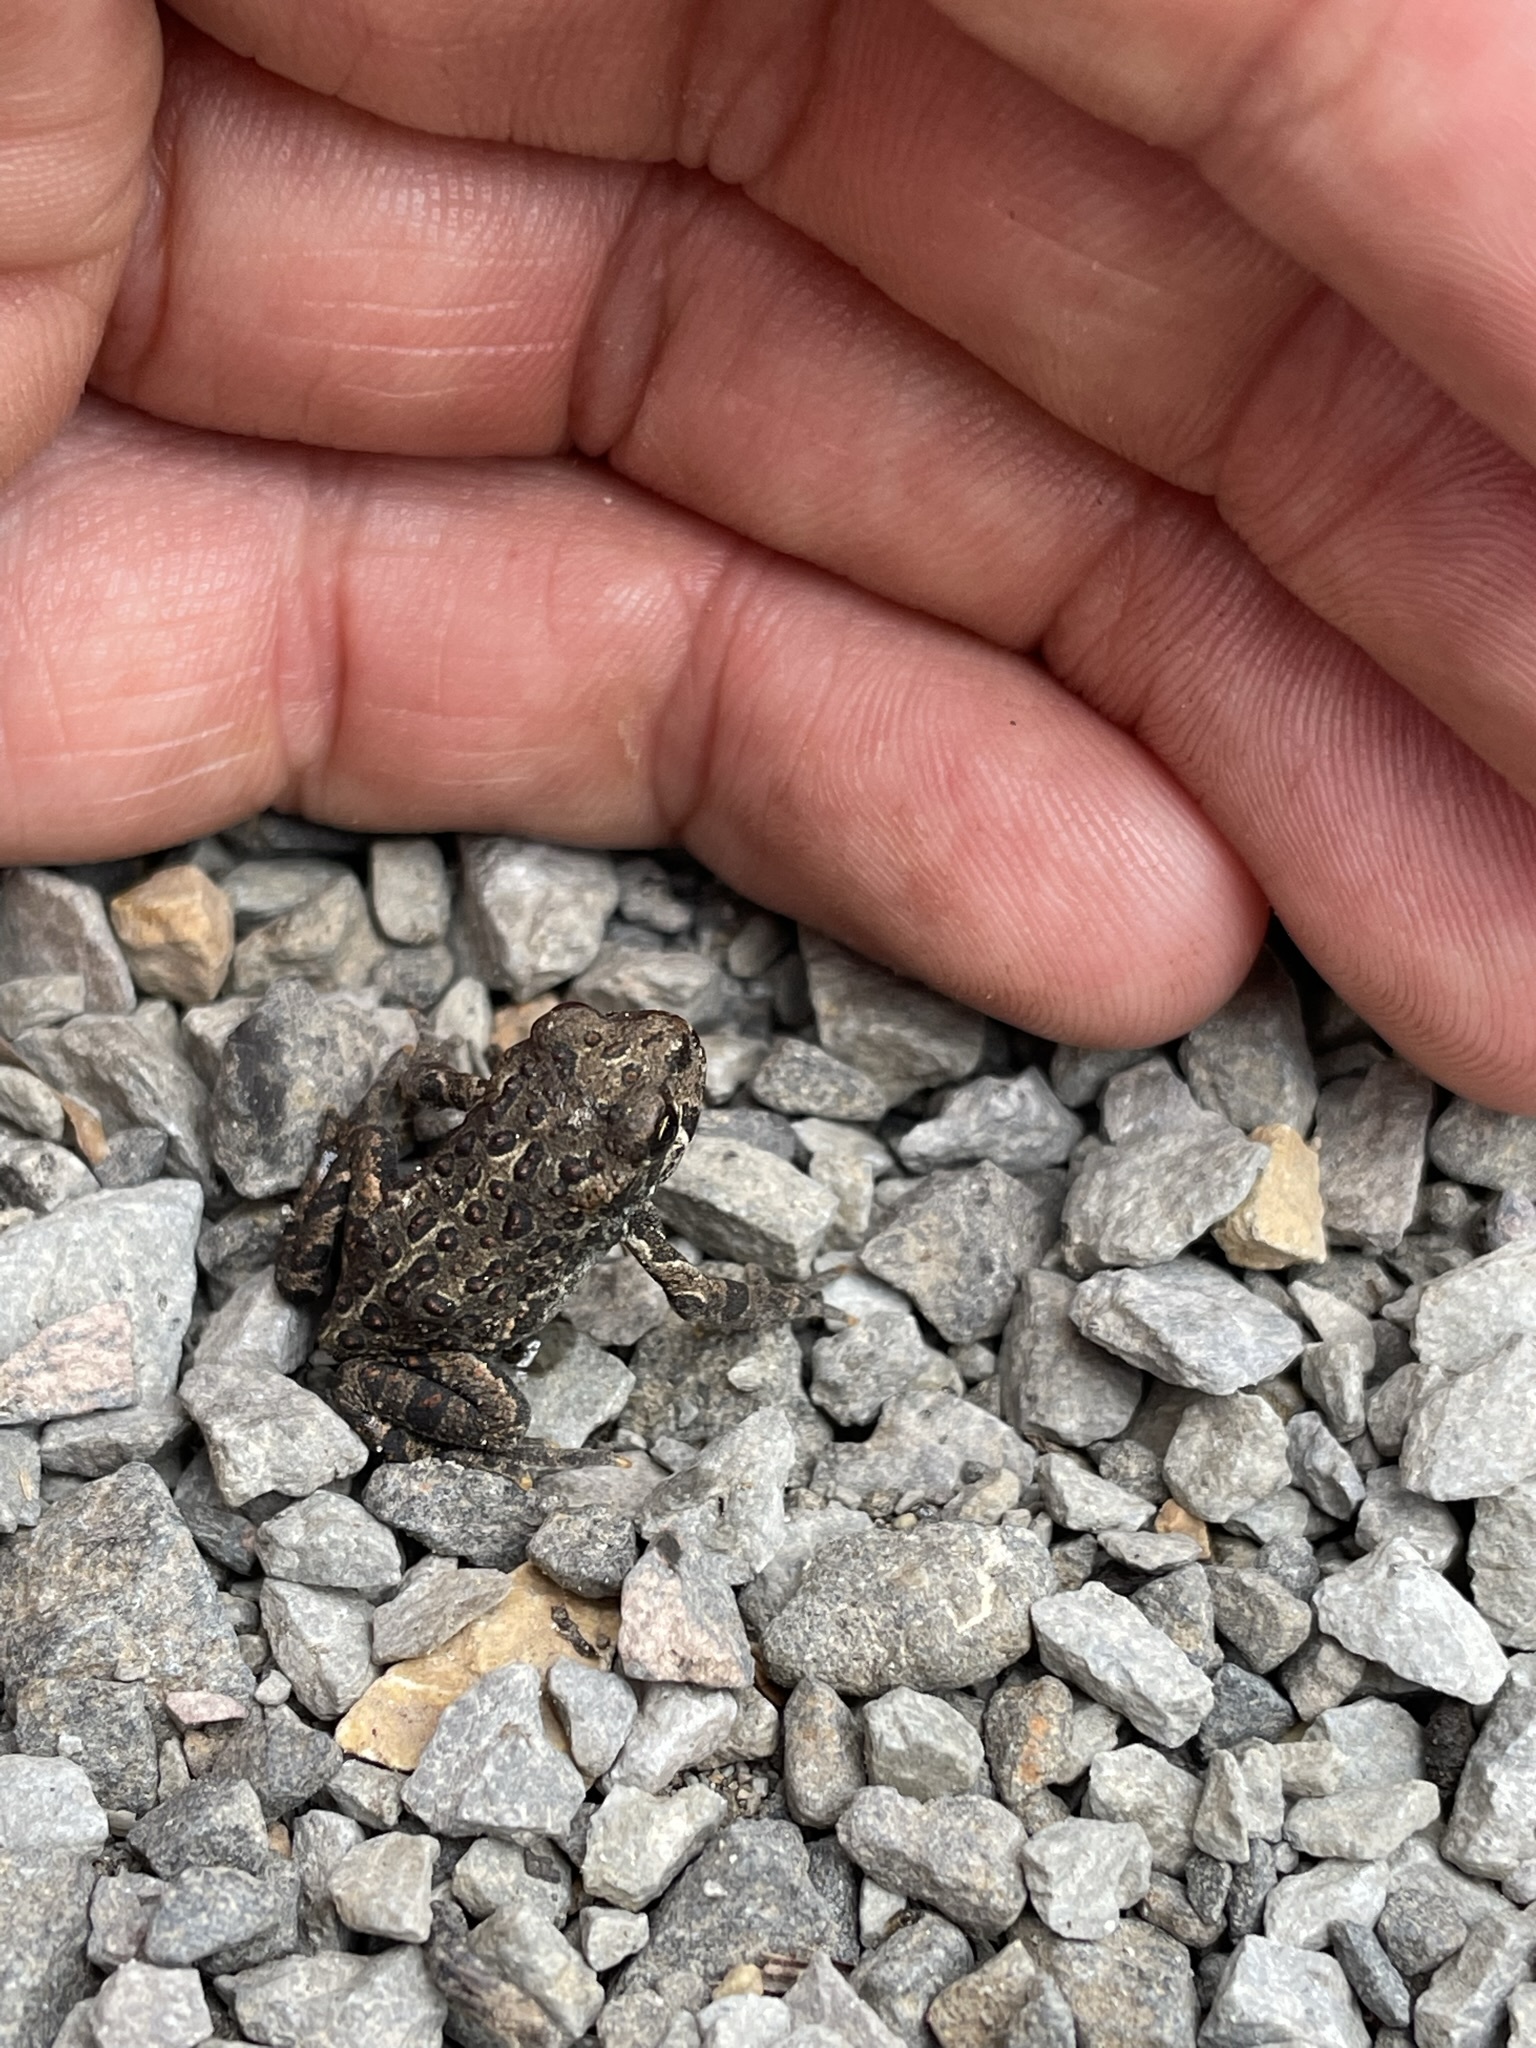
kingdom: Animalia
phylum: Chordata
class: Amphibia
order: Anura
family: Bufonidae
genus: Anaxyrus
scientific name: Anaxyrus boreas
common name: Western toad
